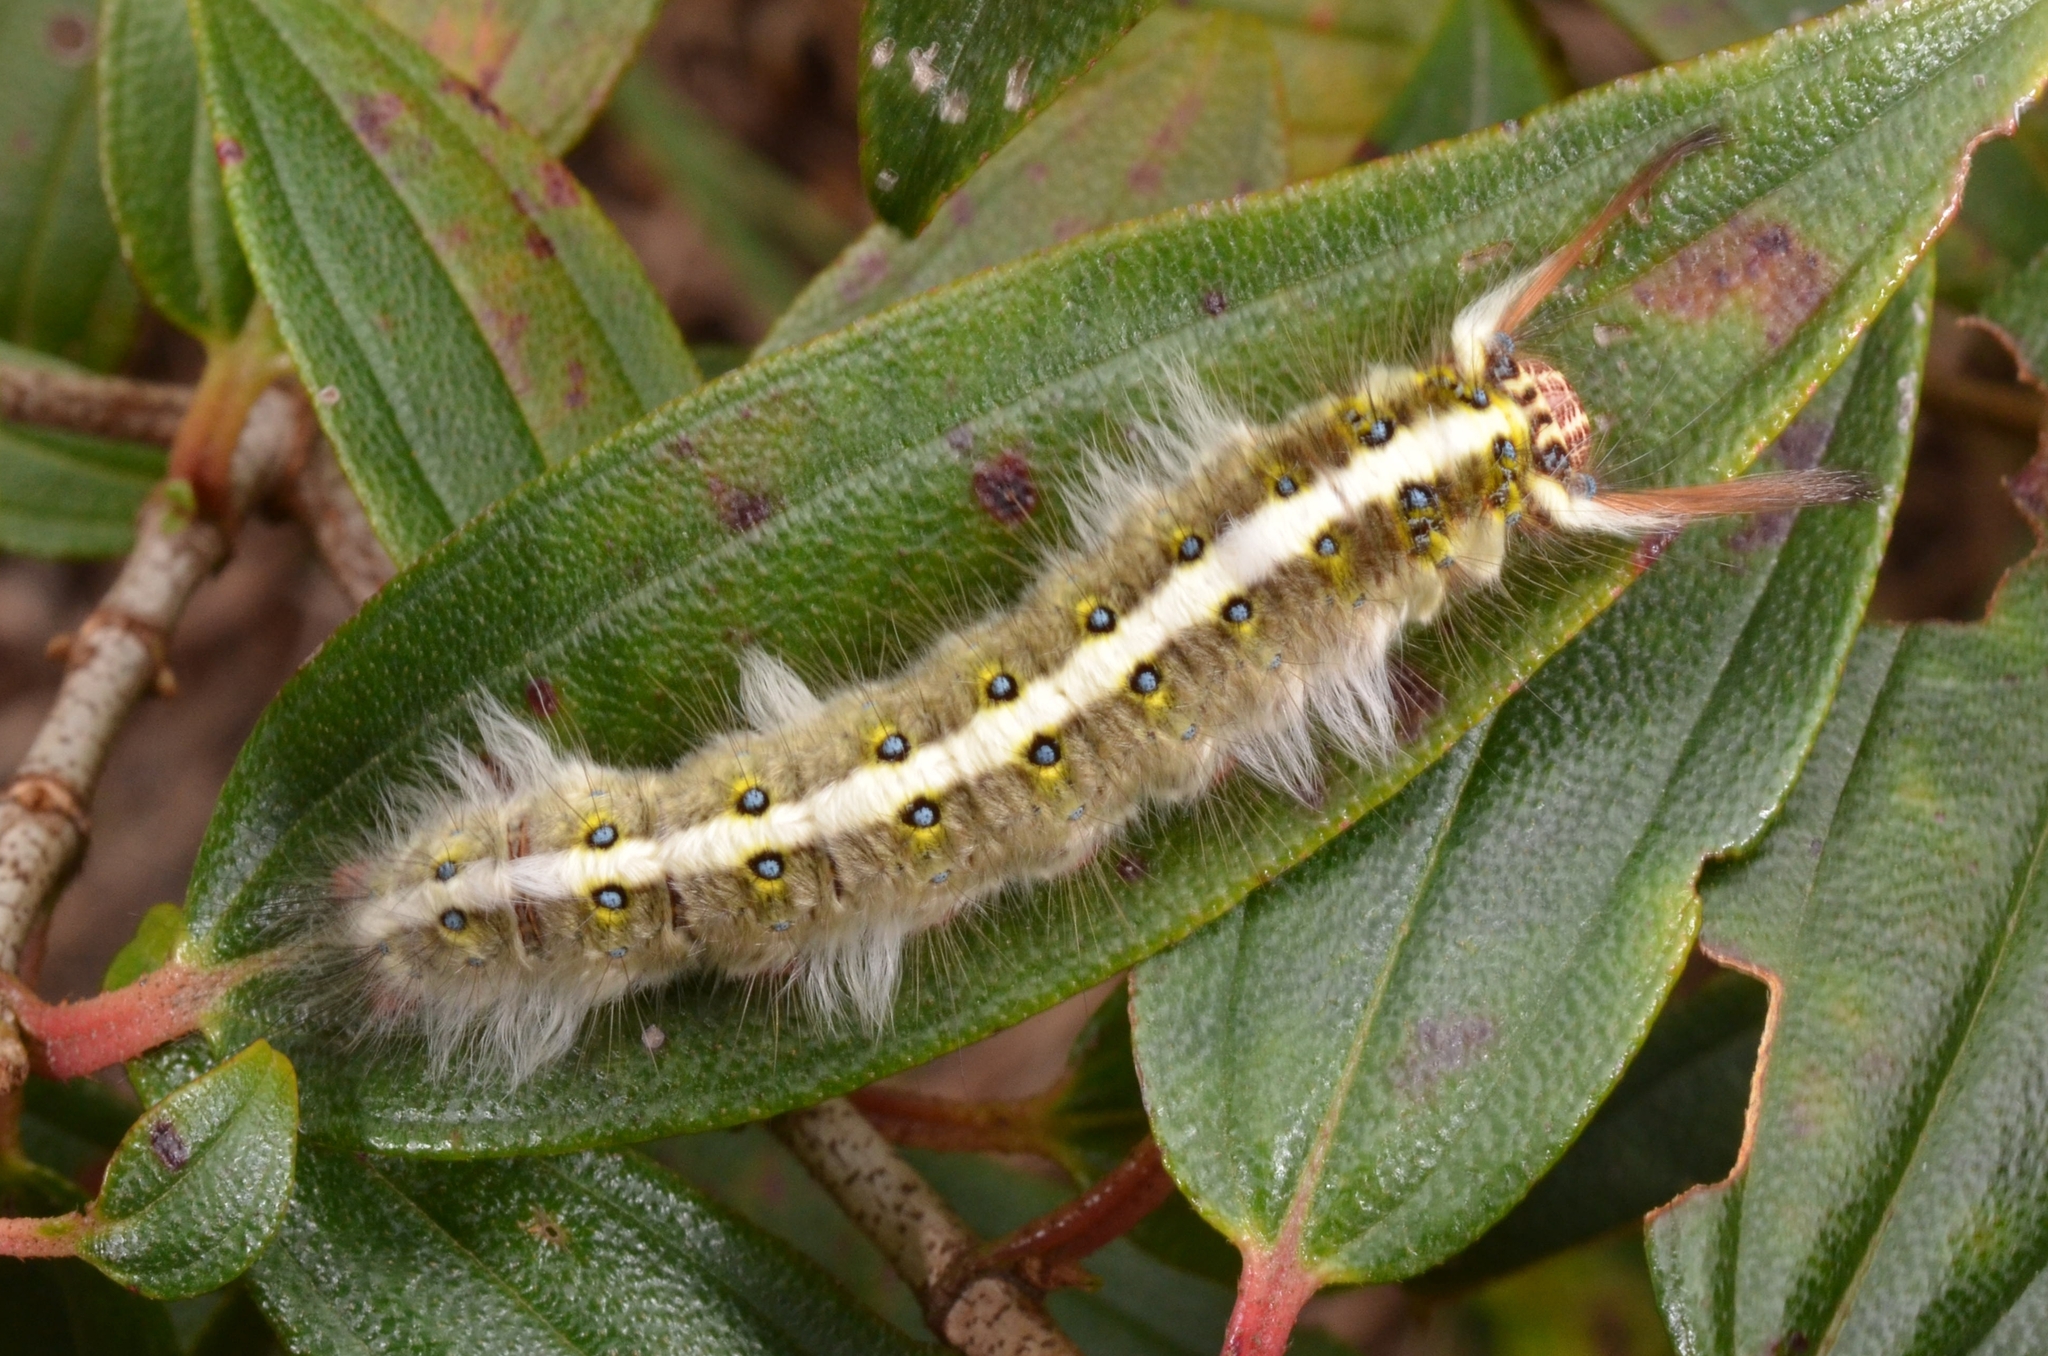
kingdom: Animalia
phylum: Arthropoda
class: Insecta
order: Lepidoptera
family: Lasiocampidae
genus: Trabala
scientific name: Trabala pallida
